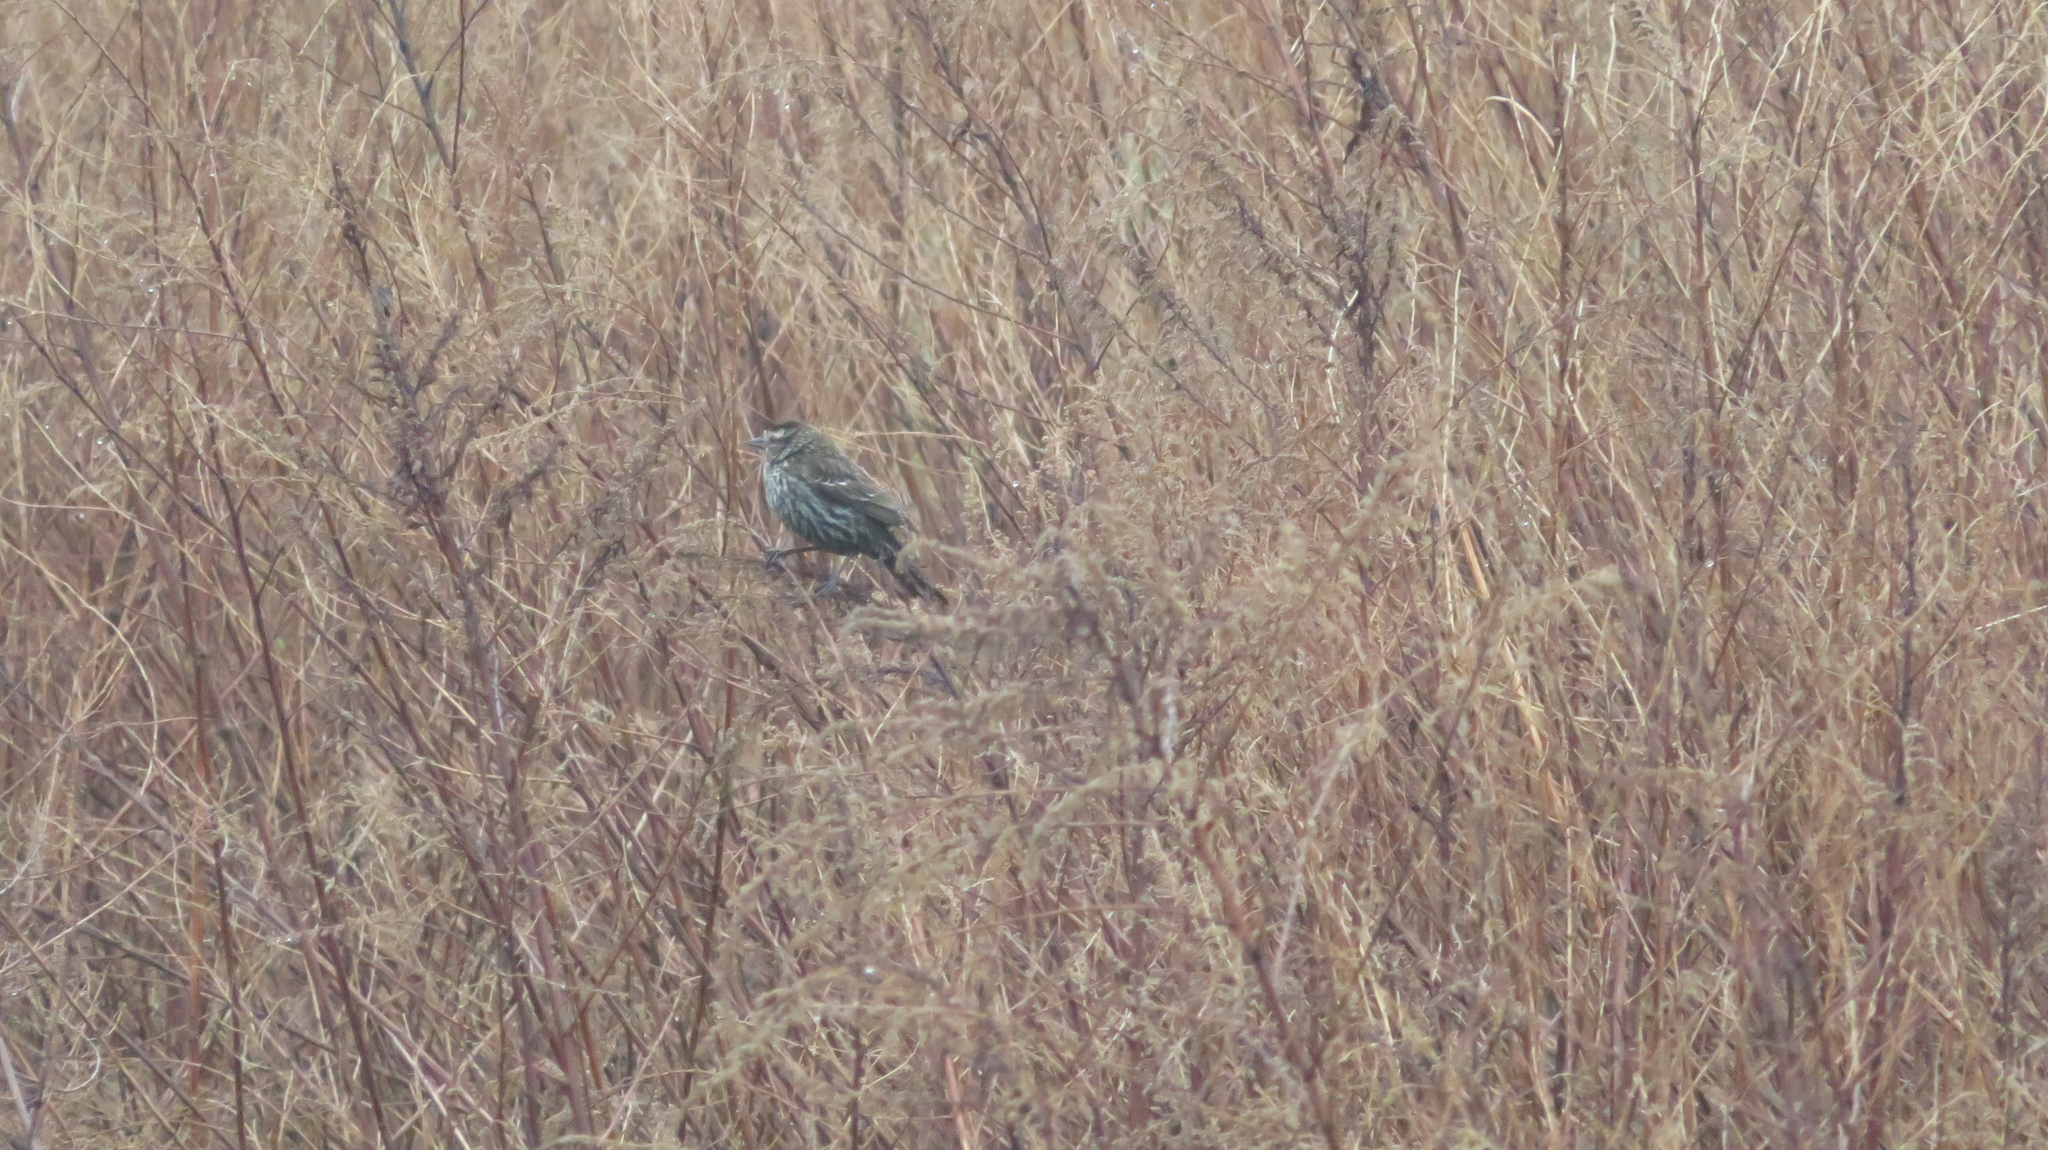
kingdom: Animalia
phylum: Chordata
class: Aves
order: Passeriformes
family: Passerellidae
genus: Melospiza
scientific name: Melospiza melodia
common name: Song sparrow
